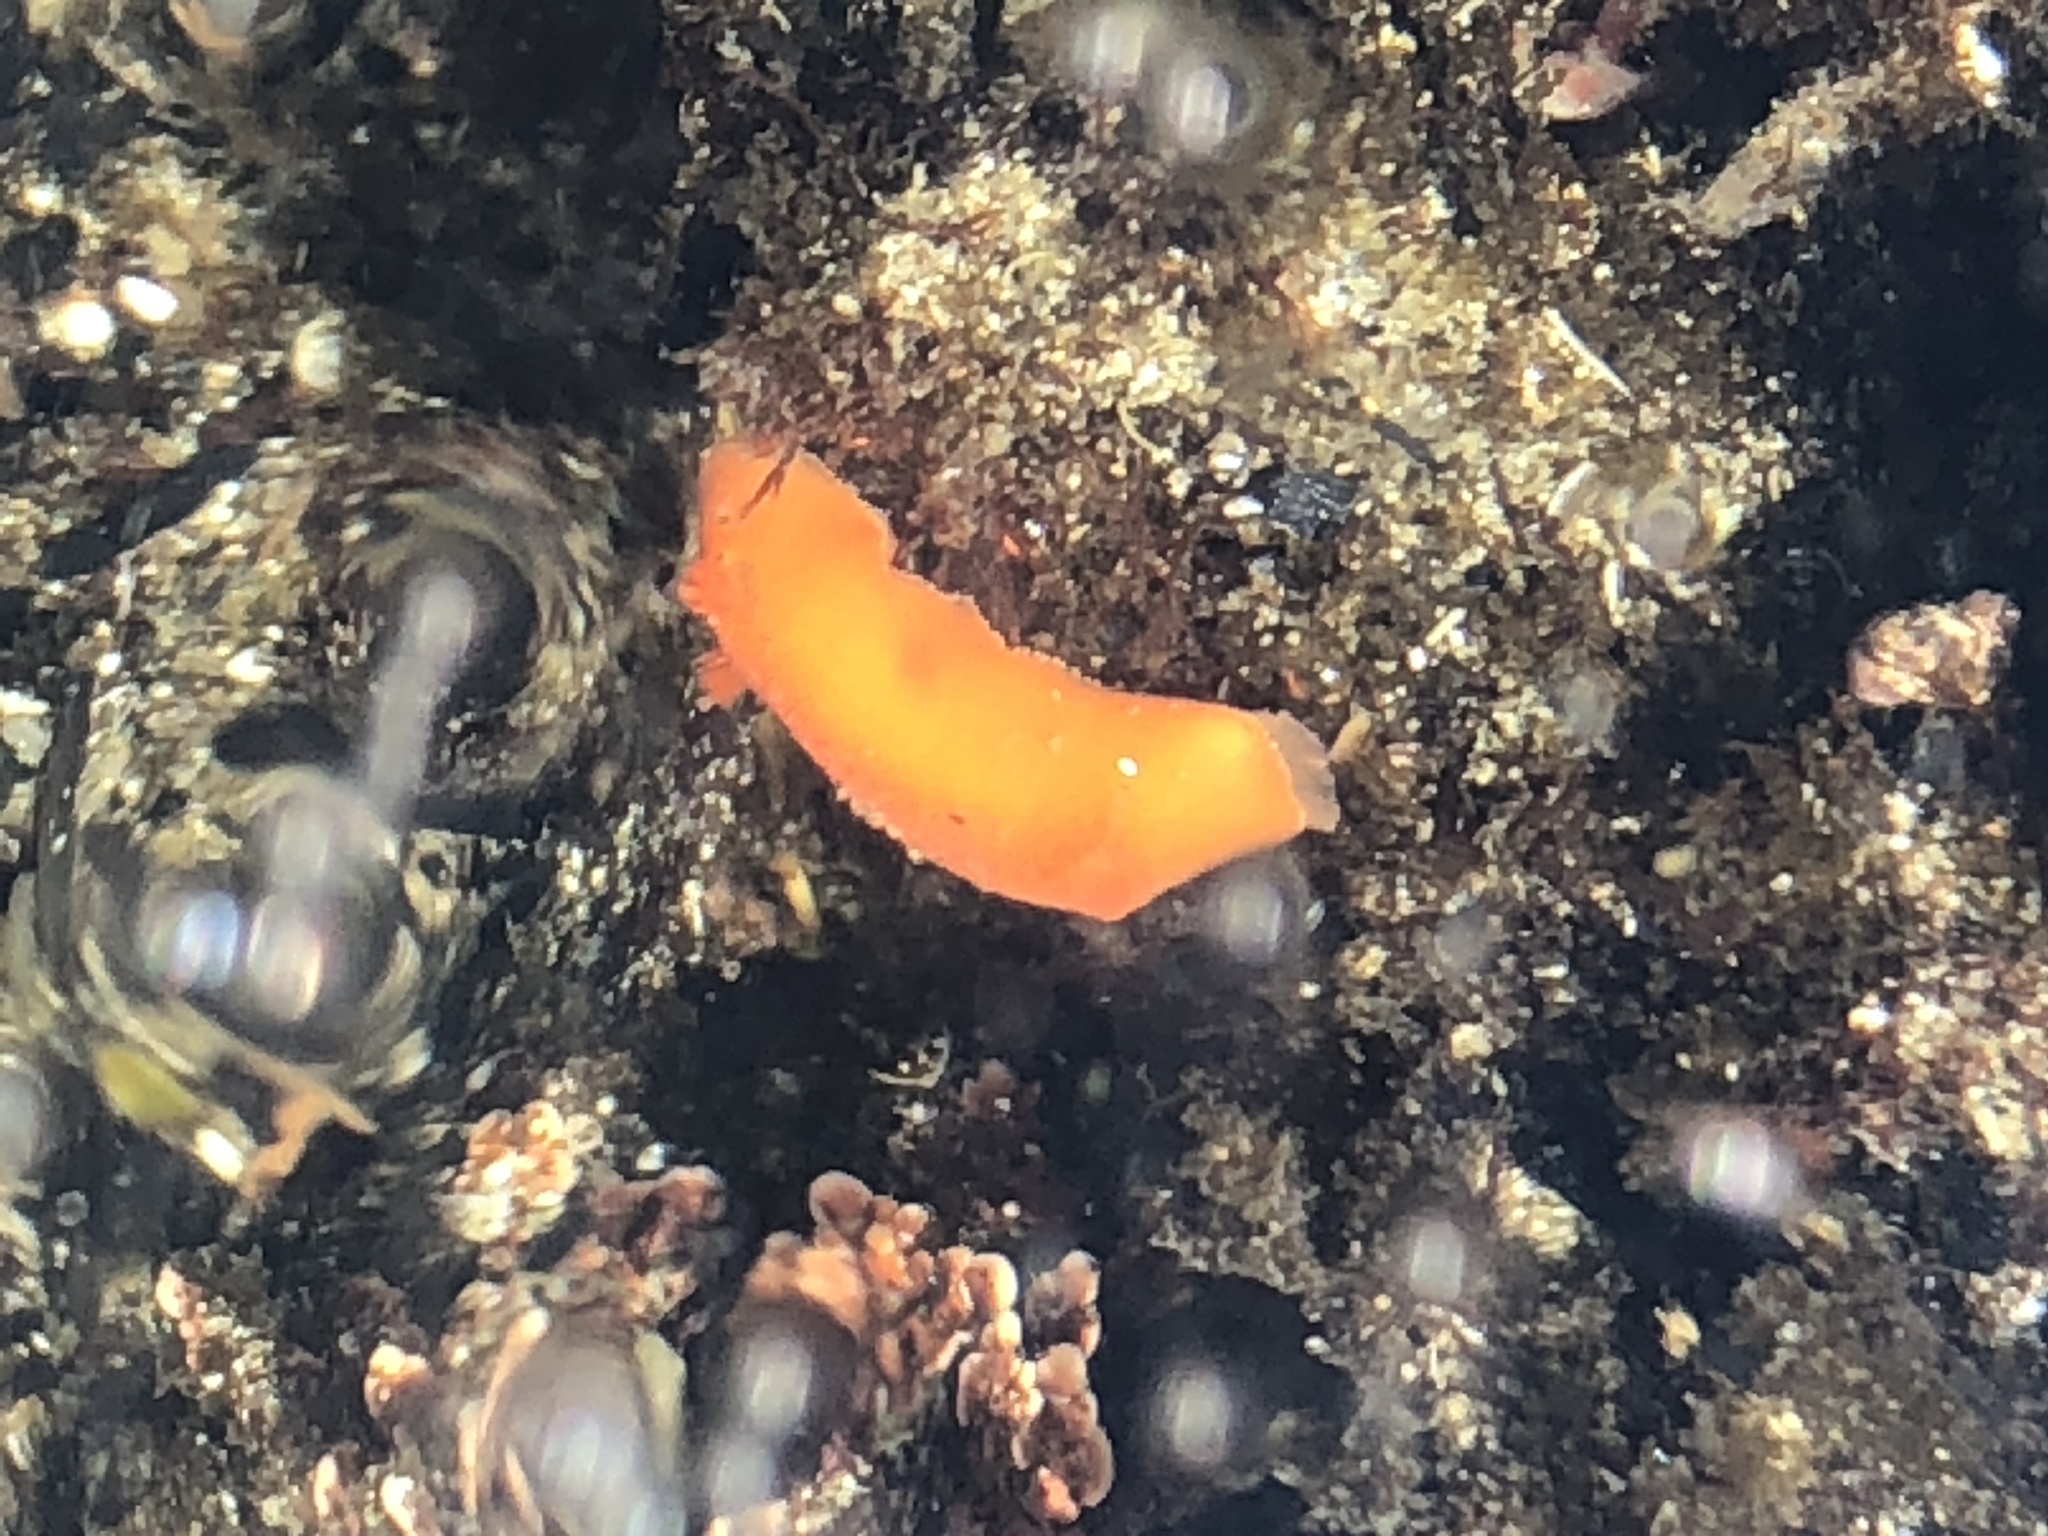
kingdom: Animalia
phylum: Mollusca
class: Gastropoda
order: Nudibranchia
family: Discodorididae
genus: Rostanga
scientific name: Rostanga pulchra
